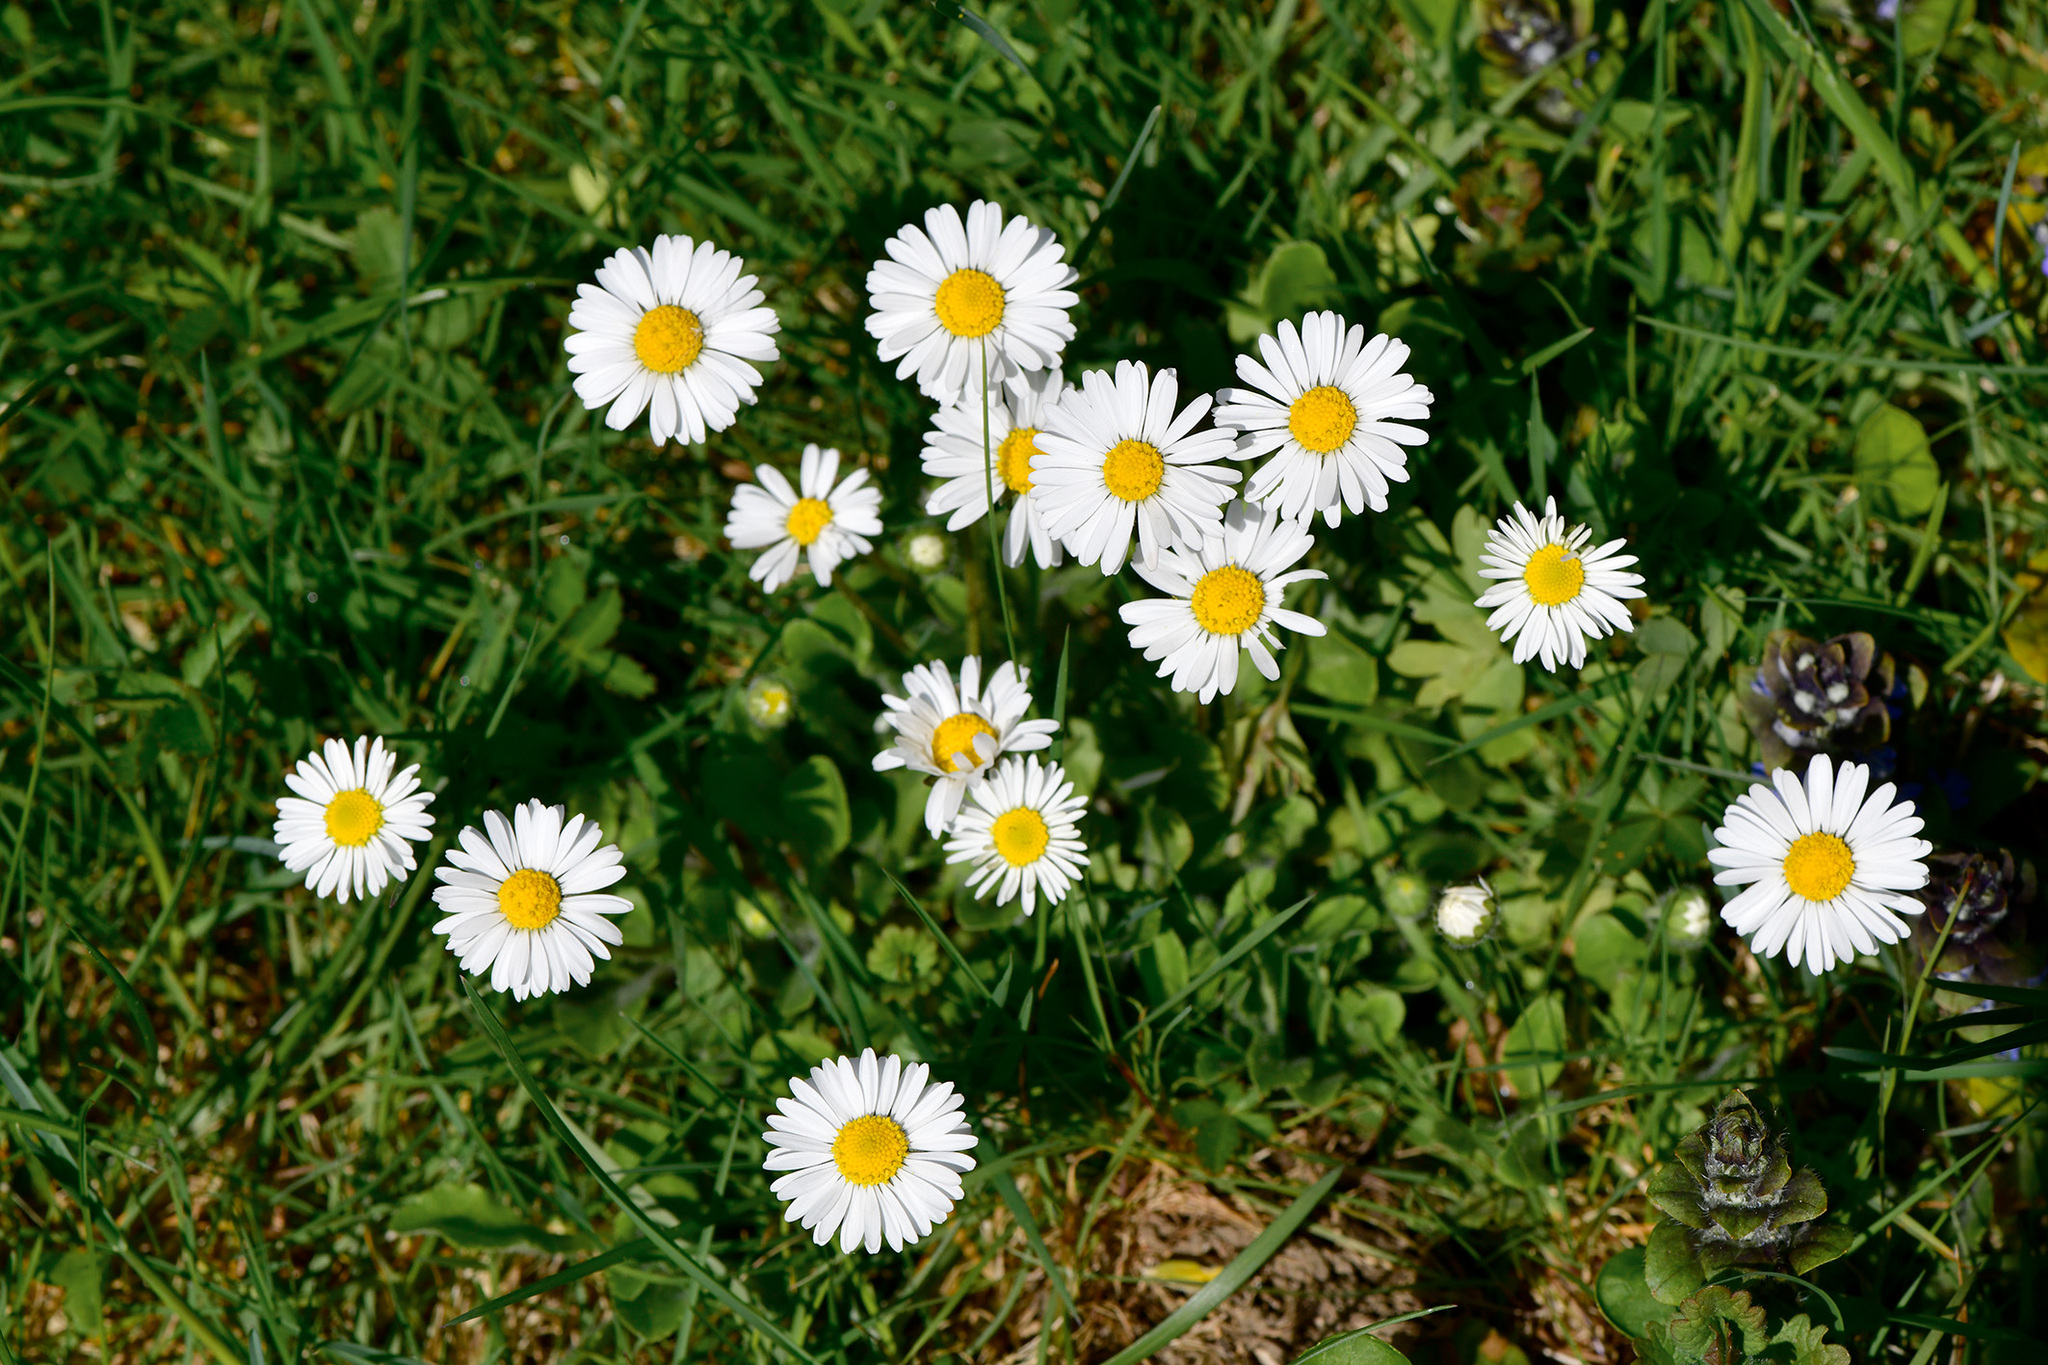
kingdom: Plantae
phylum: Tracheophyta
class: Magnoliopsida
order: Asterales
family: Asteraceae
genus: Bellis
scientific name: Bellis perennis
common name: Lawndaisy
